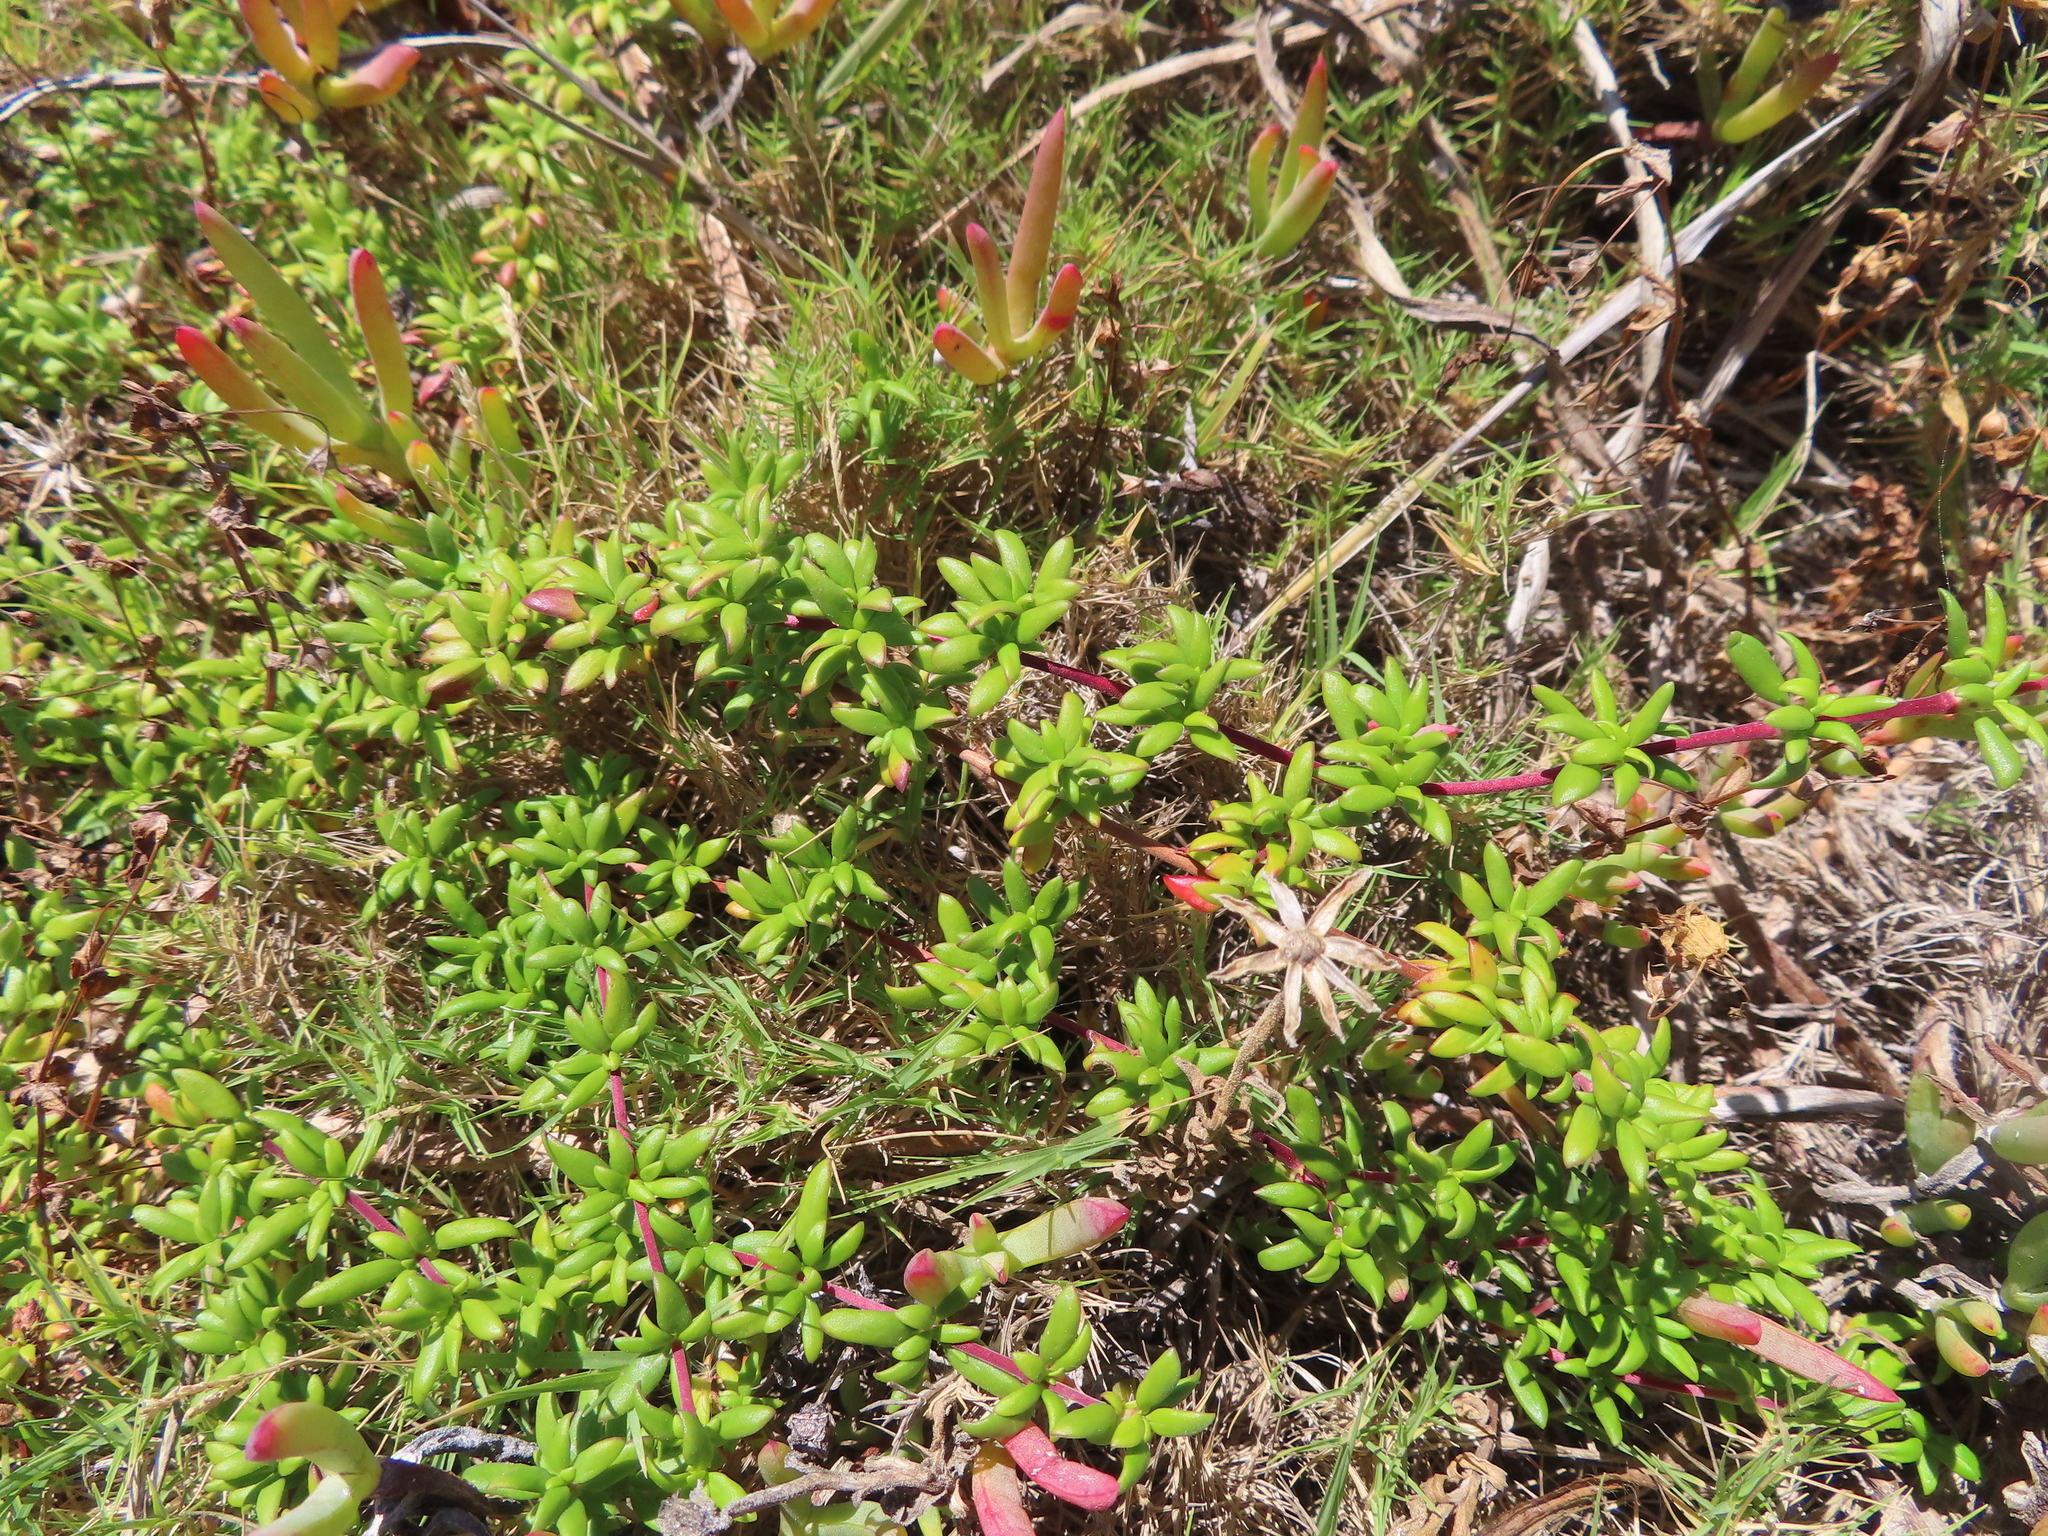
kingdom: Plantae
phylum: Tracheophyta
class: Magnoliopsida
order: Gentianales
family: Rubiaceae
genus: Anthospermum
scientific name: Anthospermum prostratum
